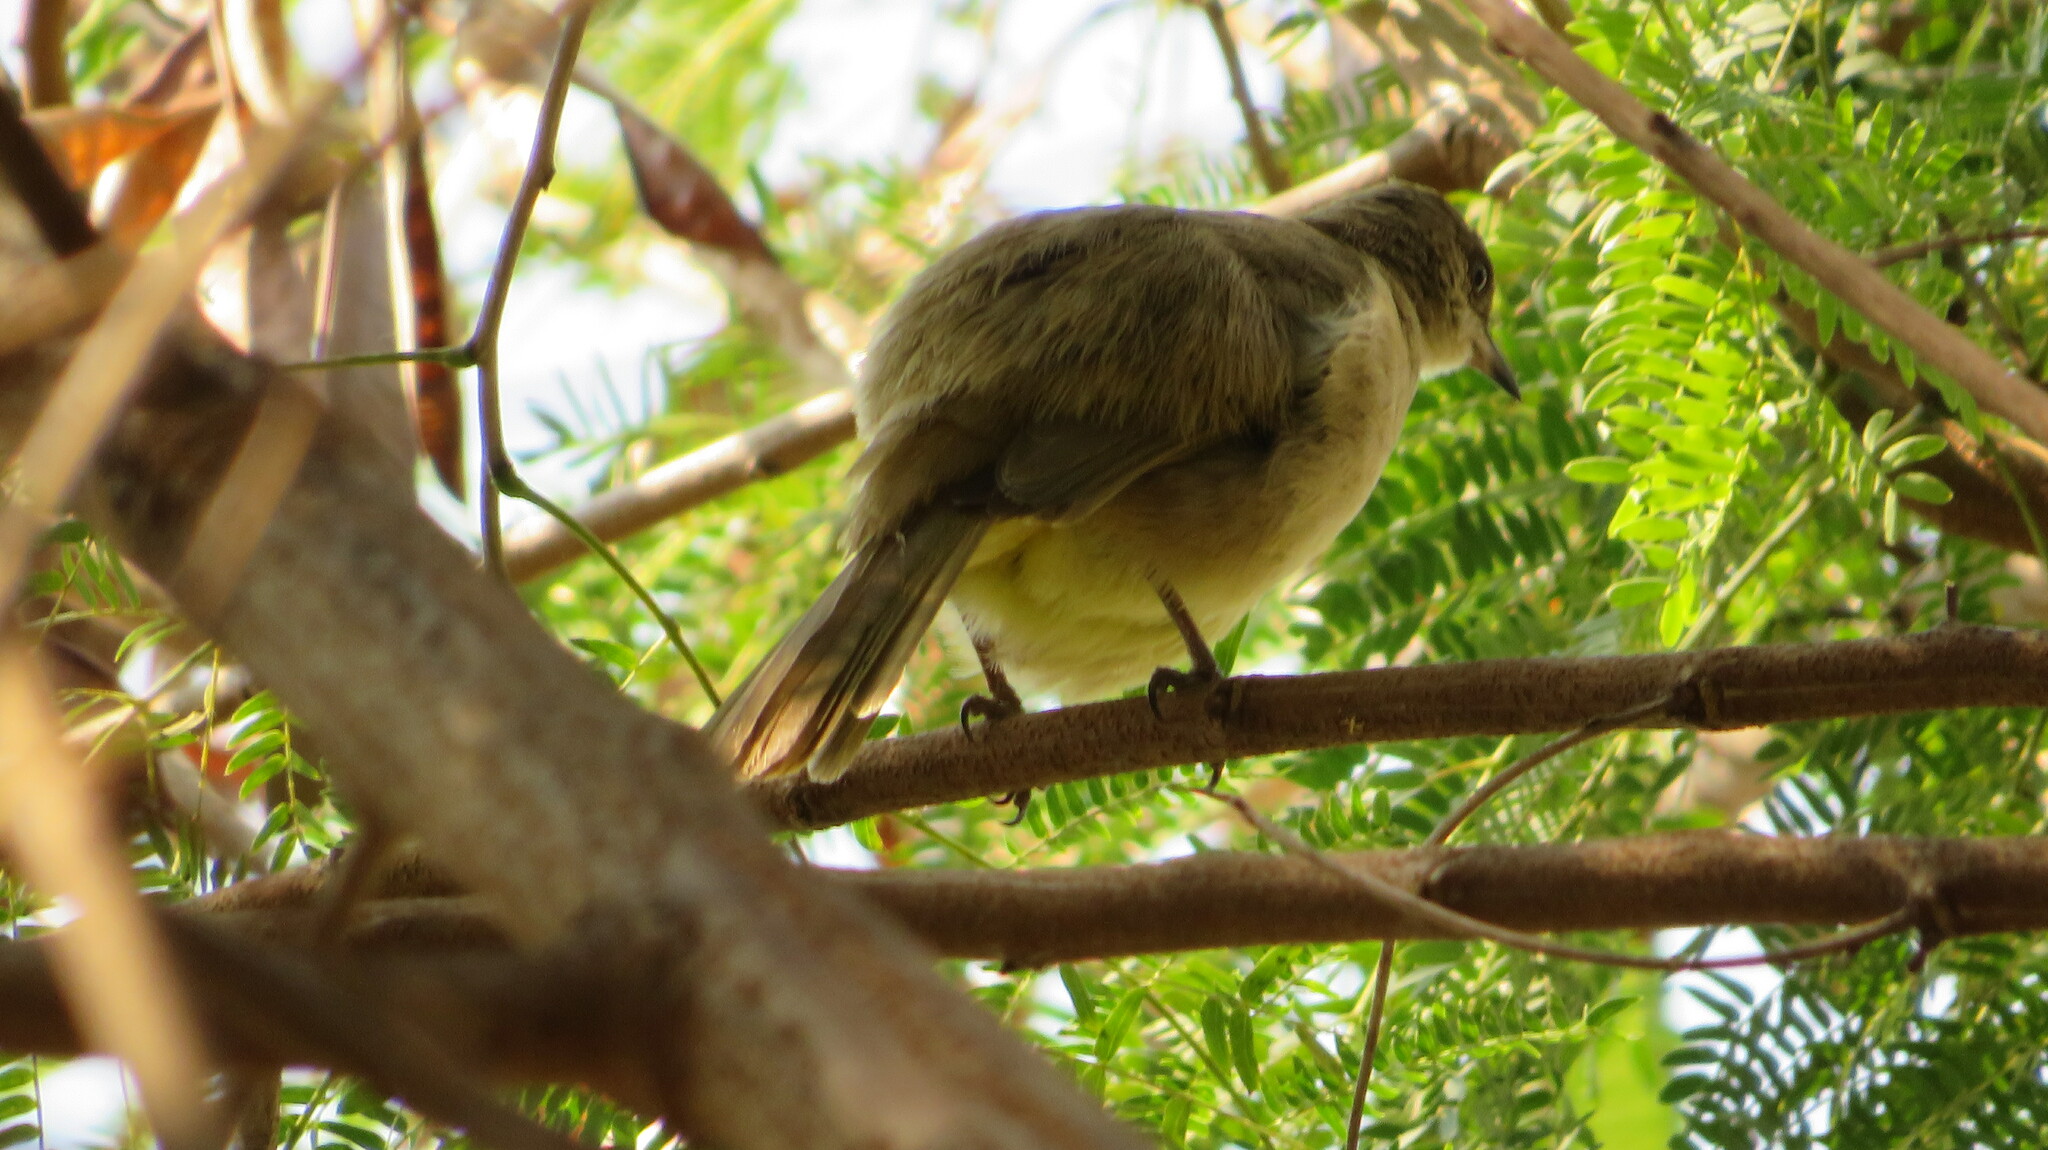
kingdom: Animalia
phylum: Chordata
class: Aves
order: Passeriformes
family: Pycnonotidae
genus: Pycnonotus
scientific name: Pycnonotus blanfordi
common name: Streak-eared bulbul
